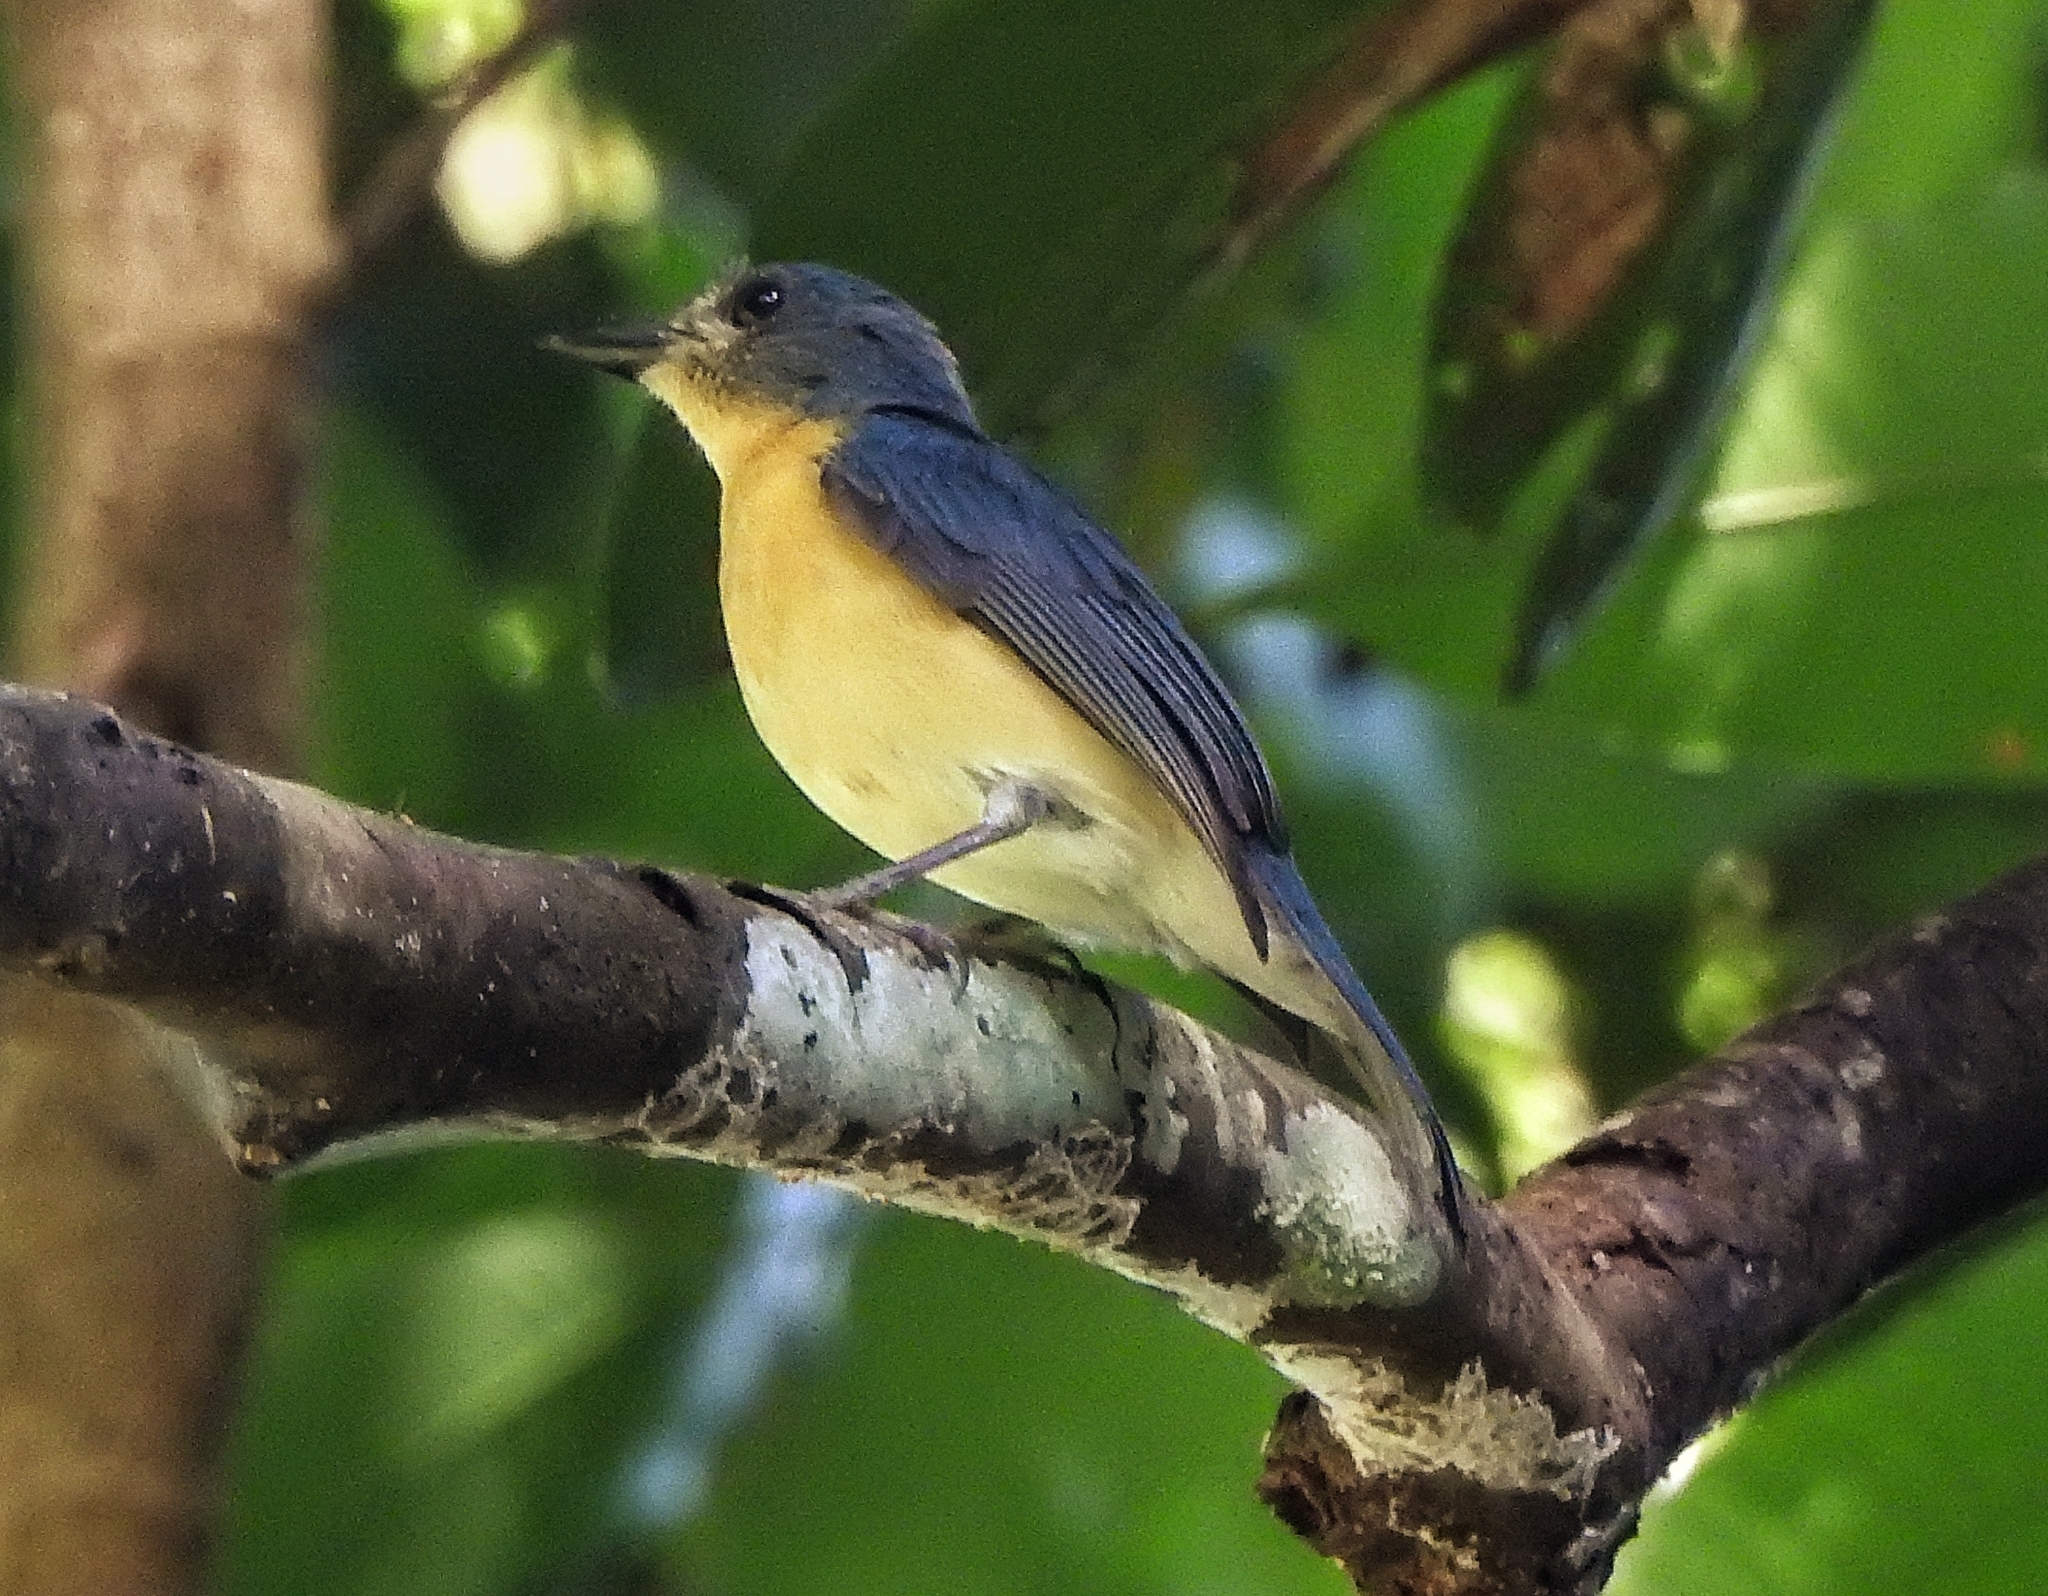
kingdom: Animalia
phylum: Chordata
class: Aves
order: Passeriformes
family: Muscicapidae
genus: Cyornis
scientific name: Cyornis tickelliae
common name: Tickell's blue flycatcher
